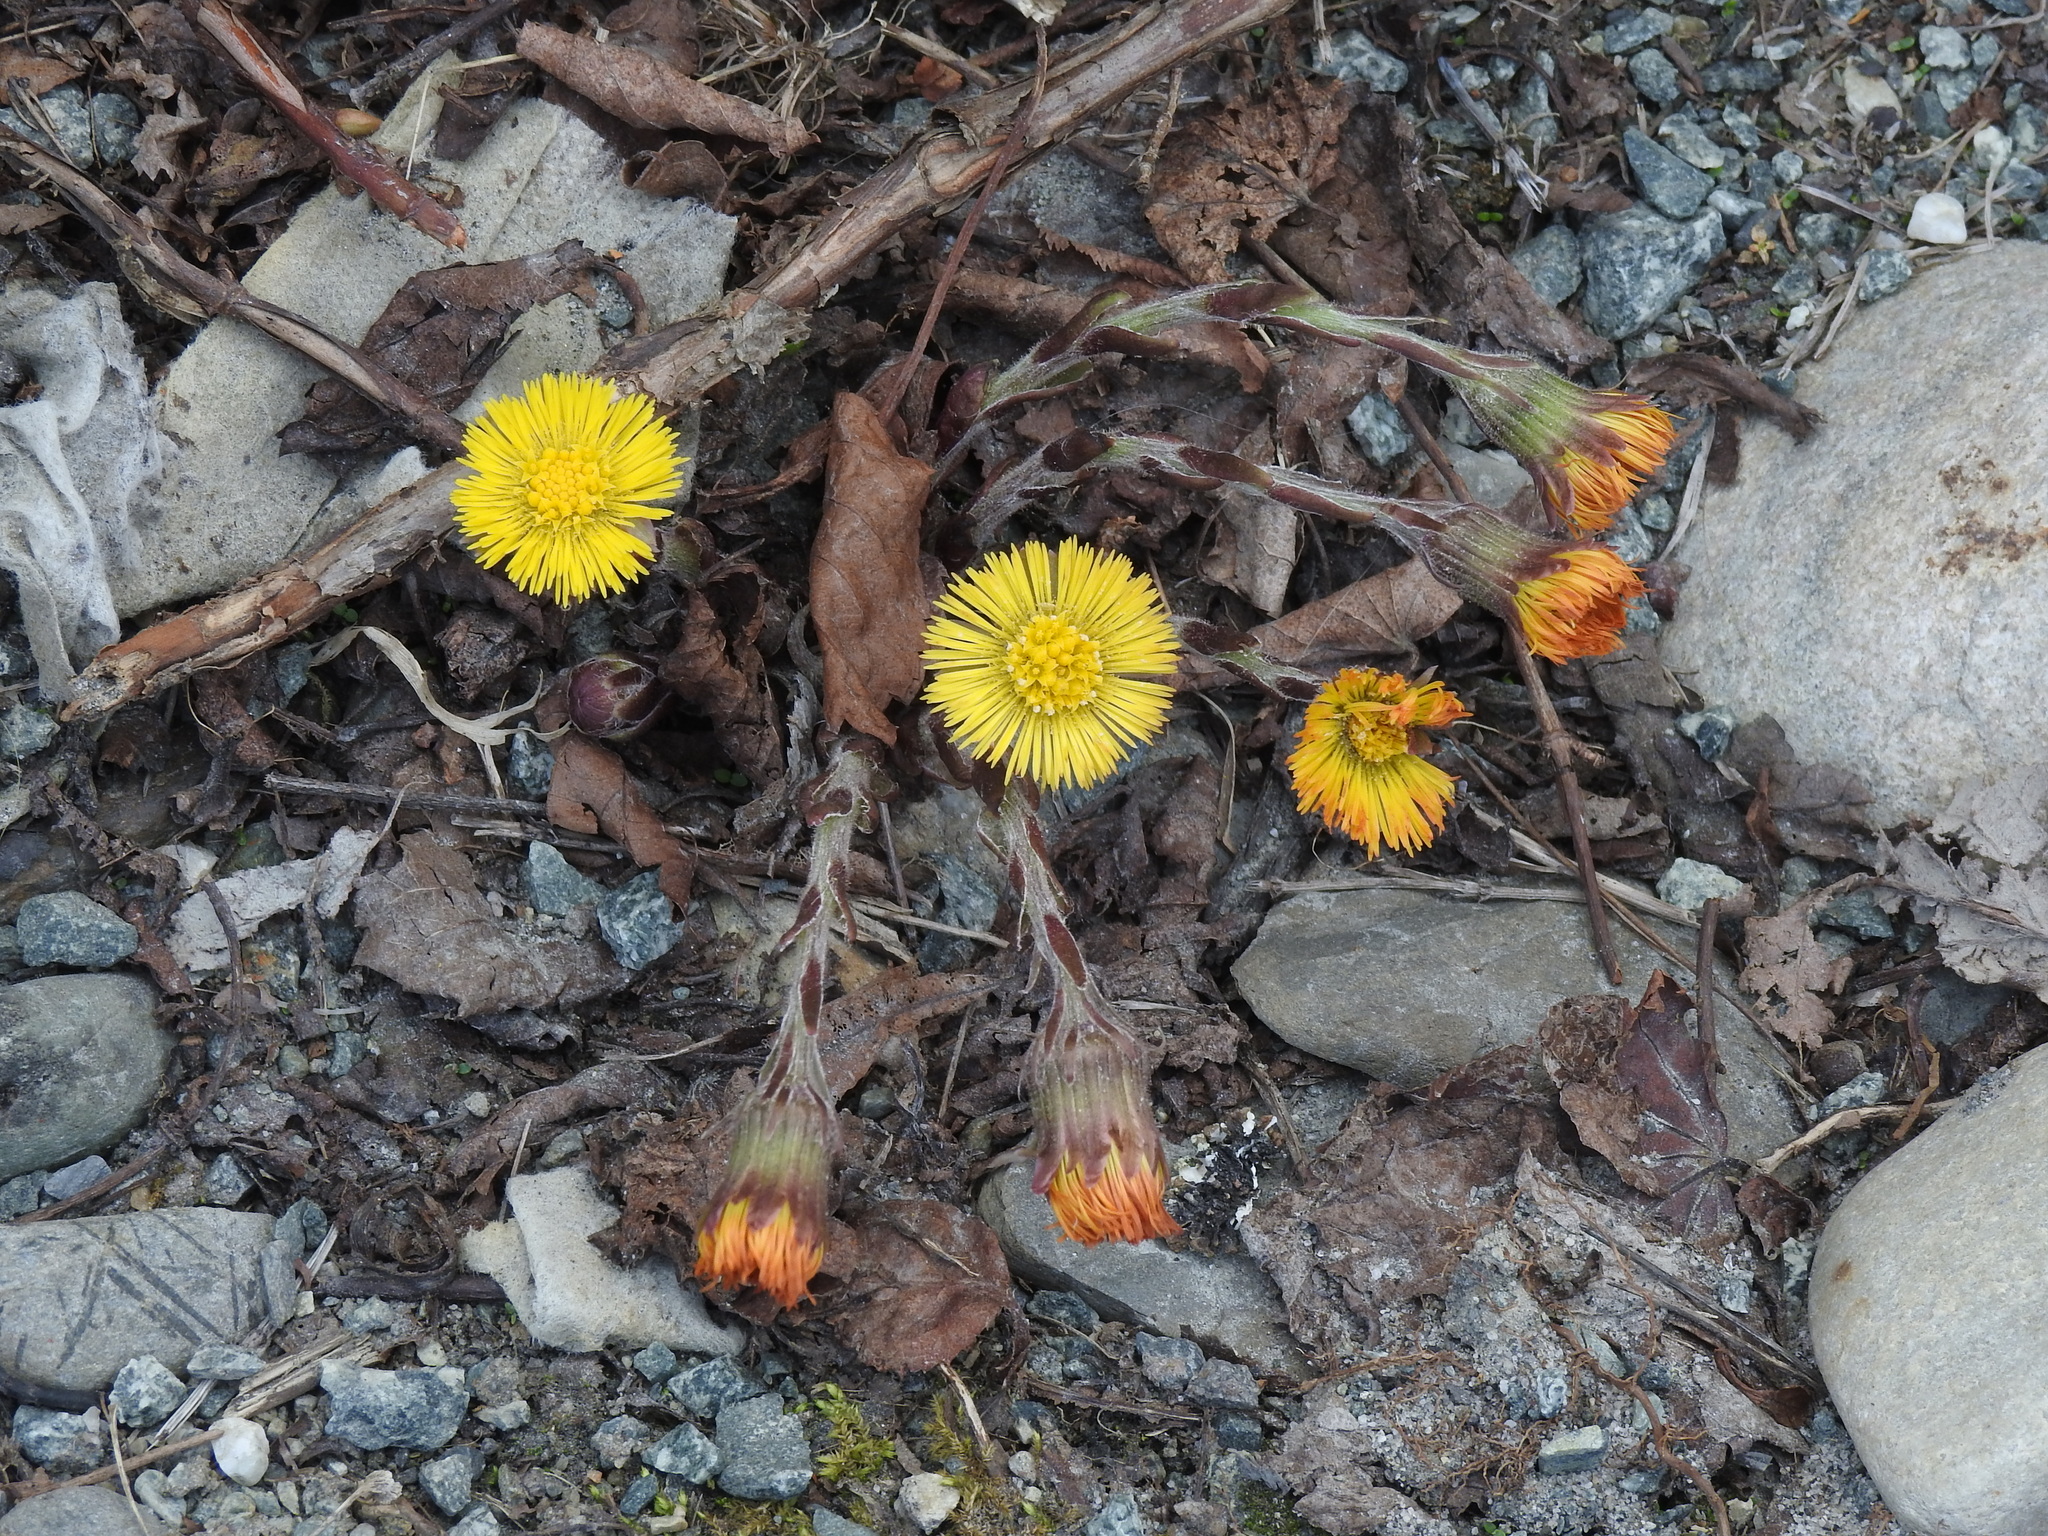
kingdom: Plantae
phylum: Tracheophyta
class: Magnoliopsida
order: Asterales
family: Asteraceae
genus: Tussilago
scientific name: Tussilago farfara
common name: Coltsfoot
